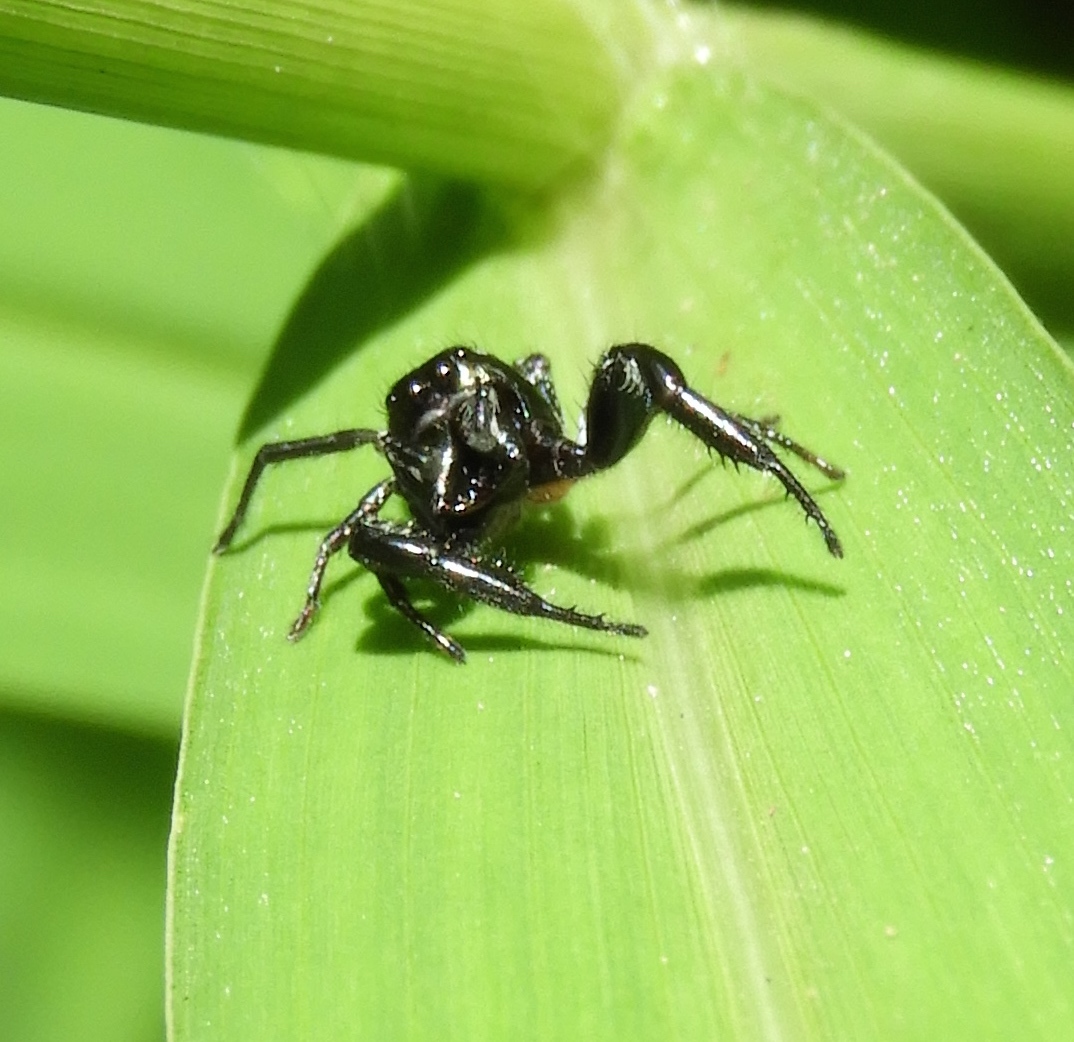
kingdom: Animalia
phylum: Arthropoda
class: Arachnida
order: Araneae
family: Salticidae
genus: Sassacus
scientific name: Sassacus
